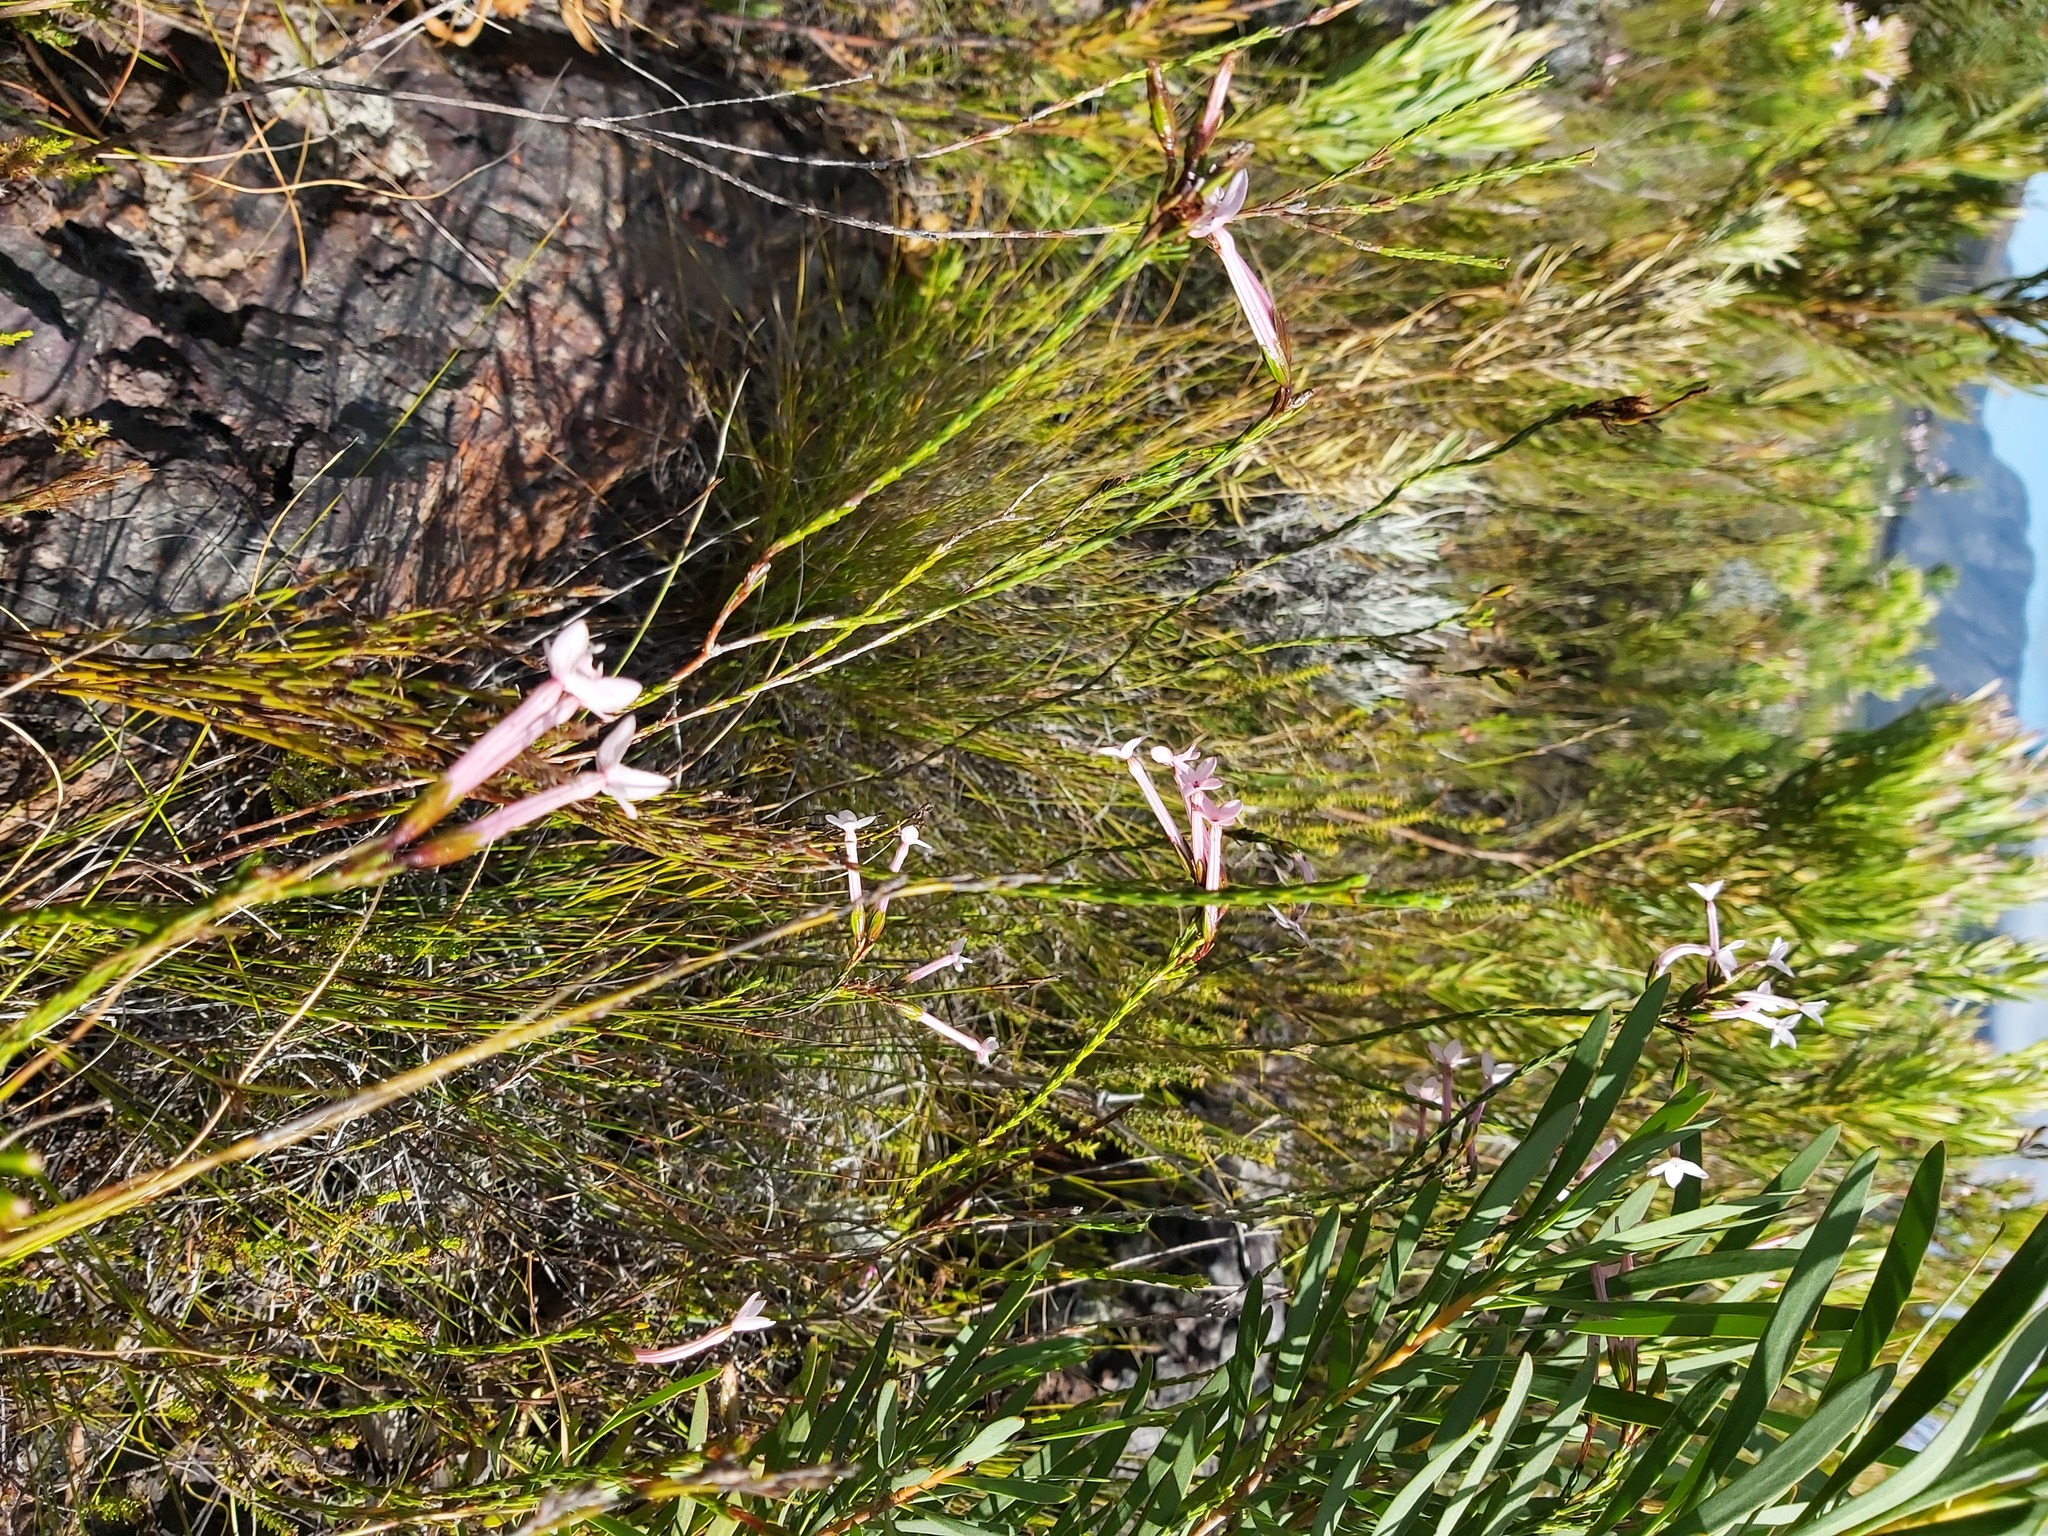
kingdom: Plantae
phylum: Tracheophyta
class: Magnoliopsida
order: Ericales
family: Ericaceae
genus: Erica
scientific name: Erica jasminiflora
